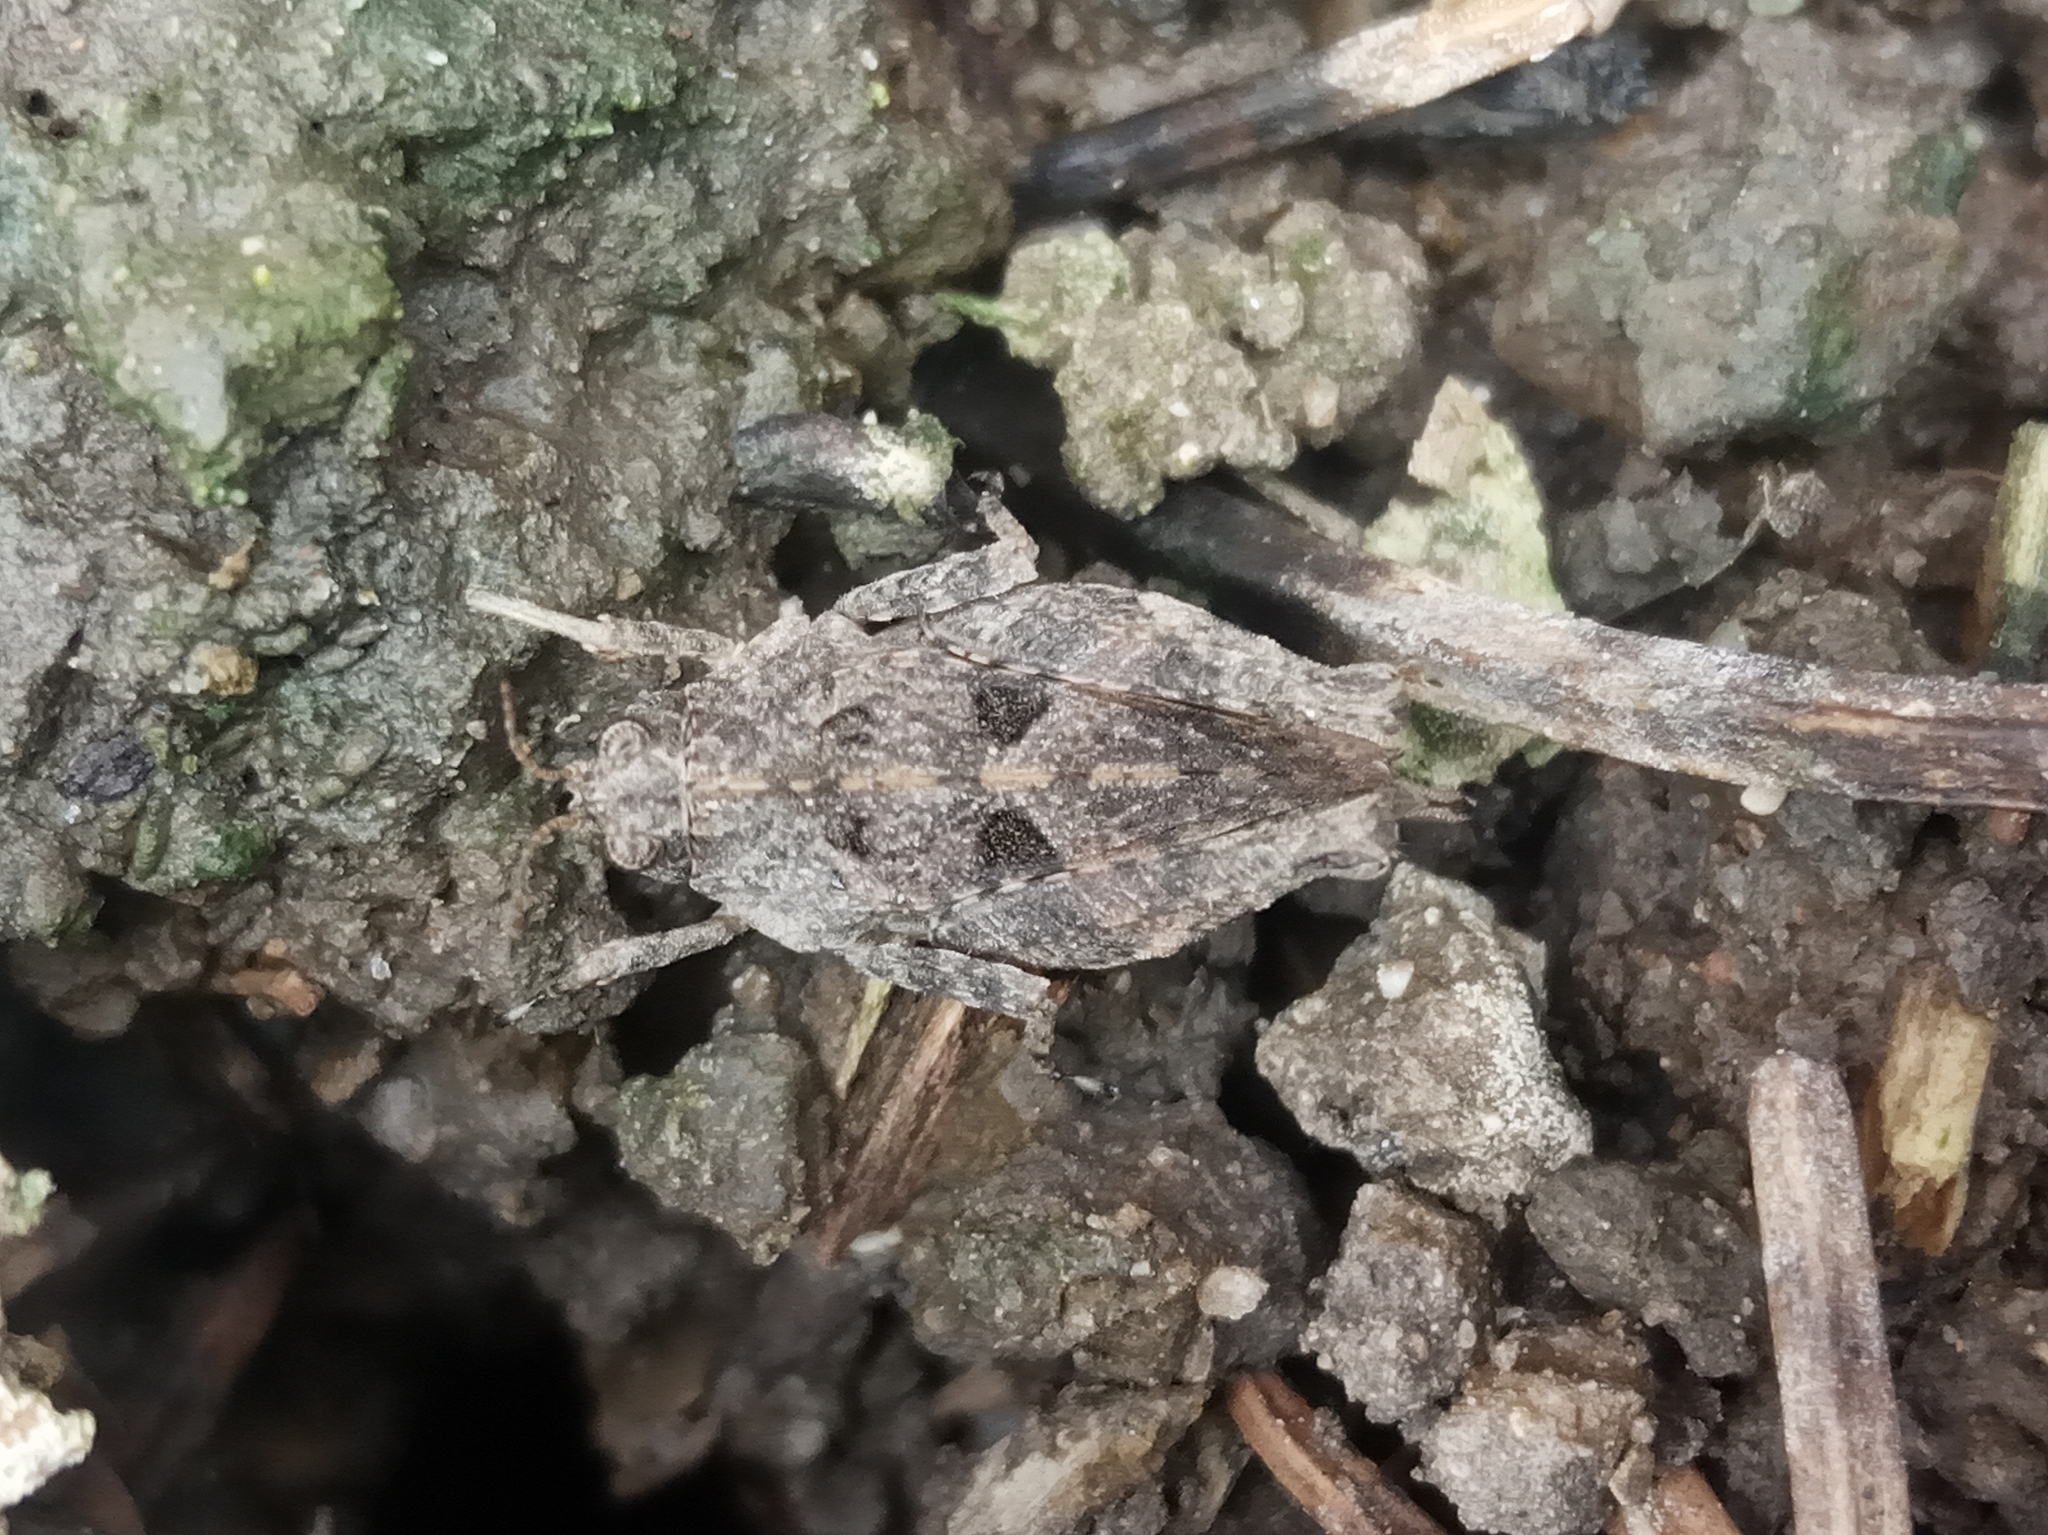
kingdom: Animalia
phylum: Arthropoda
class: Insecta
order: Orthoptera
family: Tetrigidae
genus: Tetrix
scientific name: Tetrix
